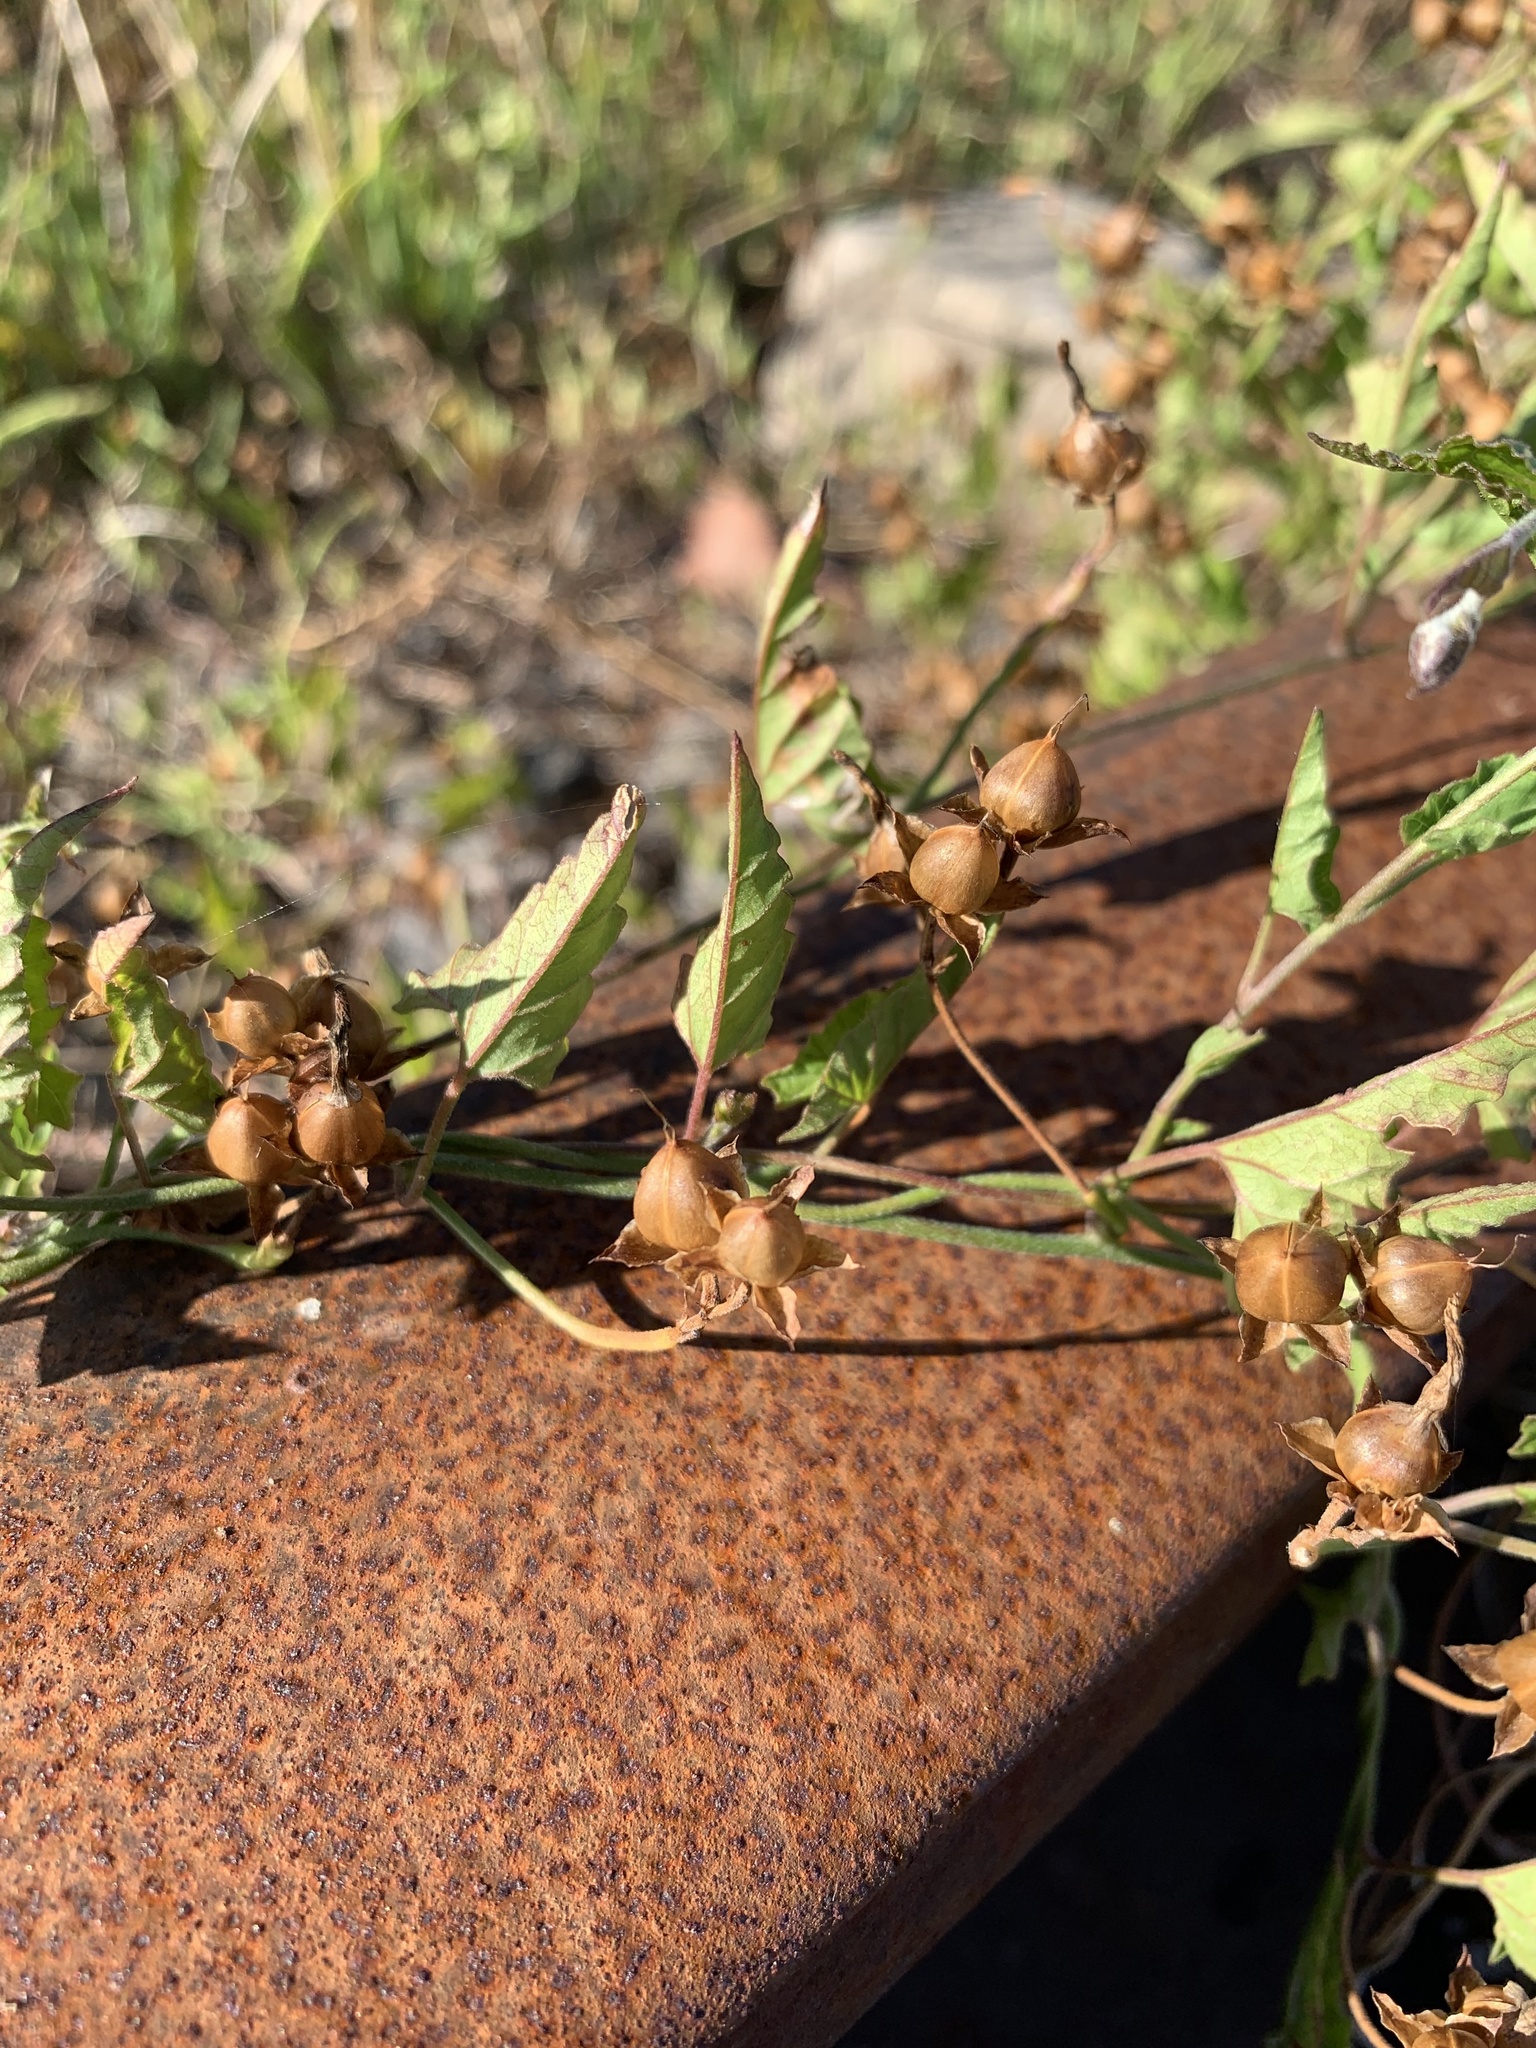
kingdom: Plantae
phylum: Tracheophyta
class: Magnoliopsida
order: Solanales
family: Convolvulaceae
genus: Convolvulus
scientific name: Convolvulus farinosus
